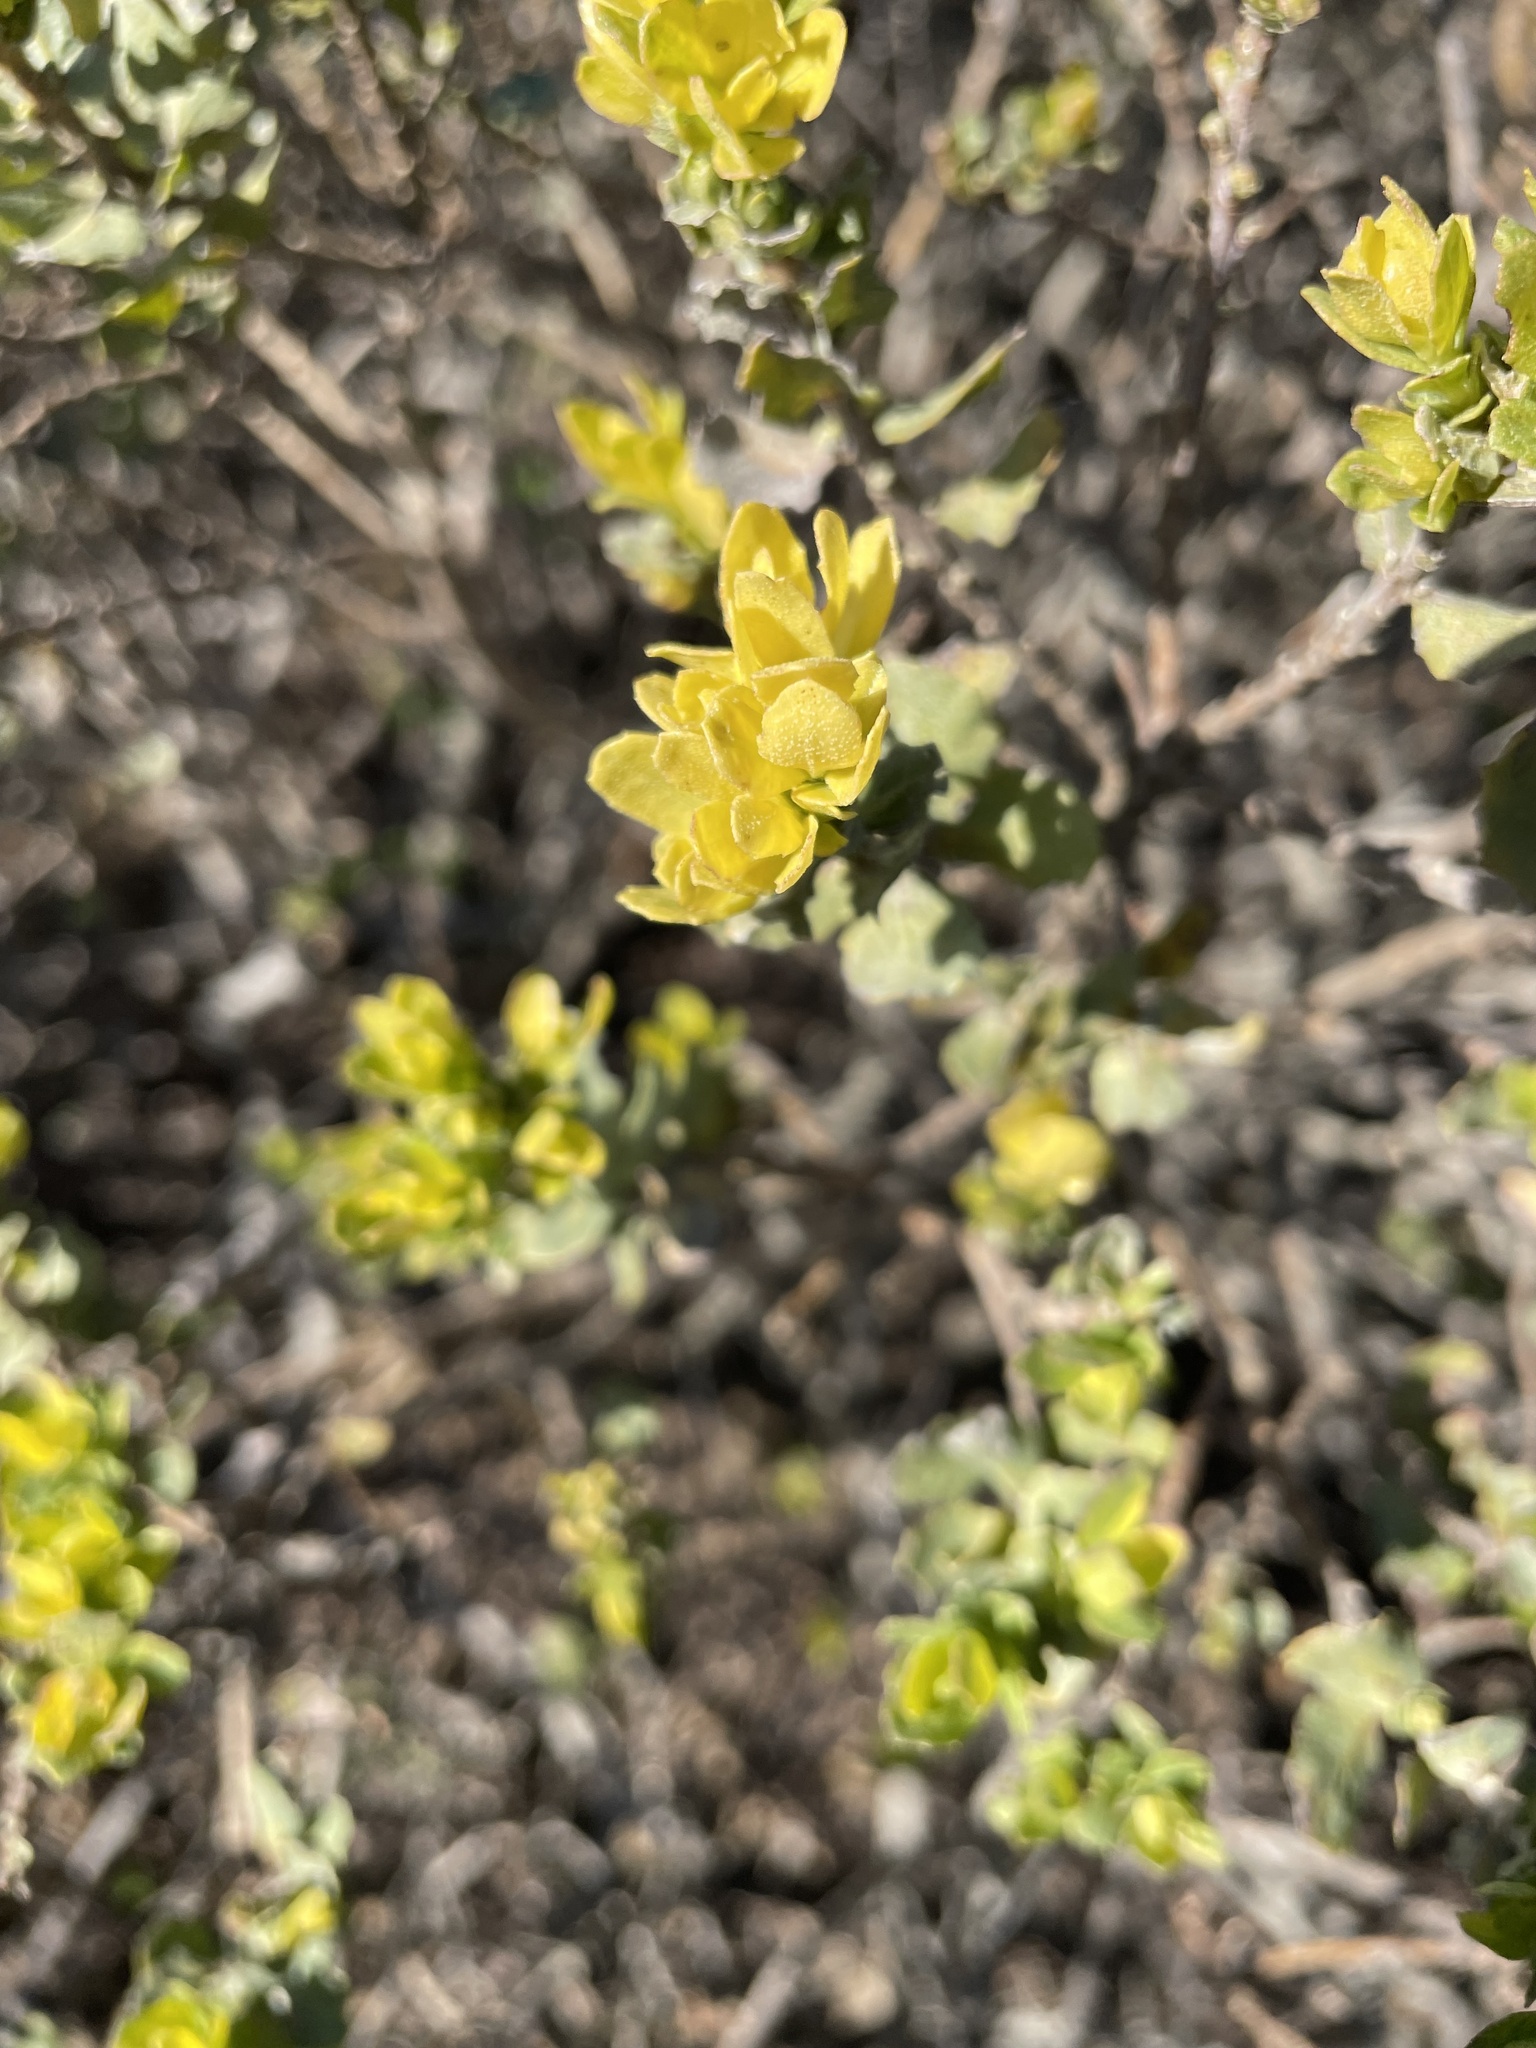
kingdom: Plantae
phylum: Tracheophyta
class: Magnoliopsida
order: Asterales
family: Asteraceae
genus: Baccharis
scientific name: Baccharis pilularis
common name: Coyotebrush
